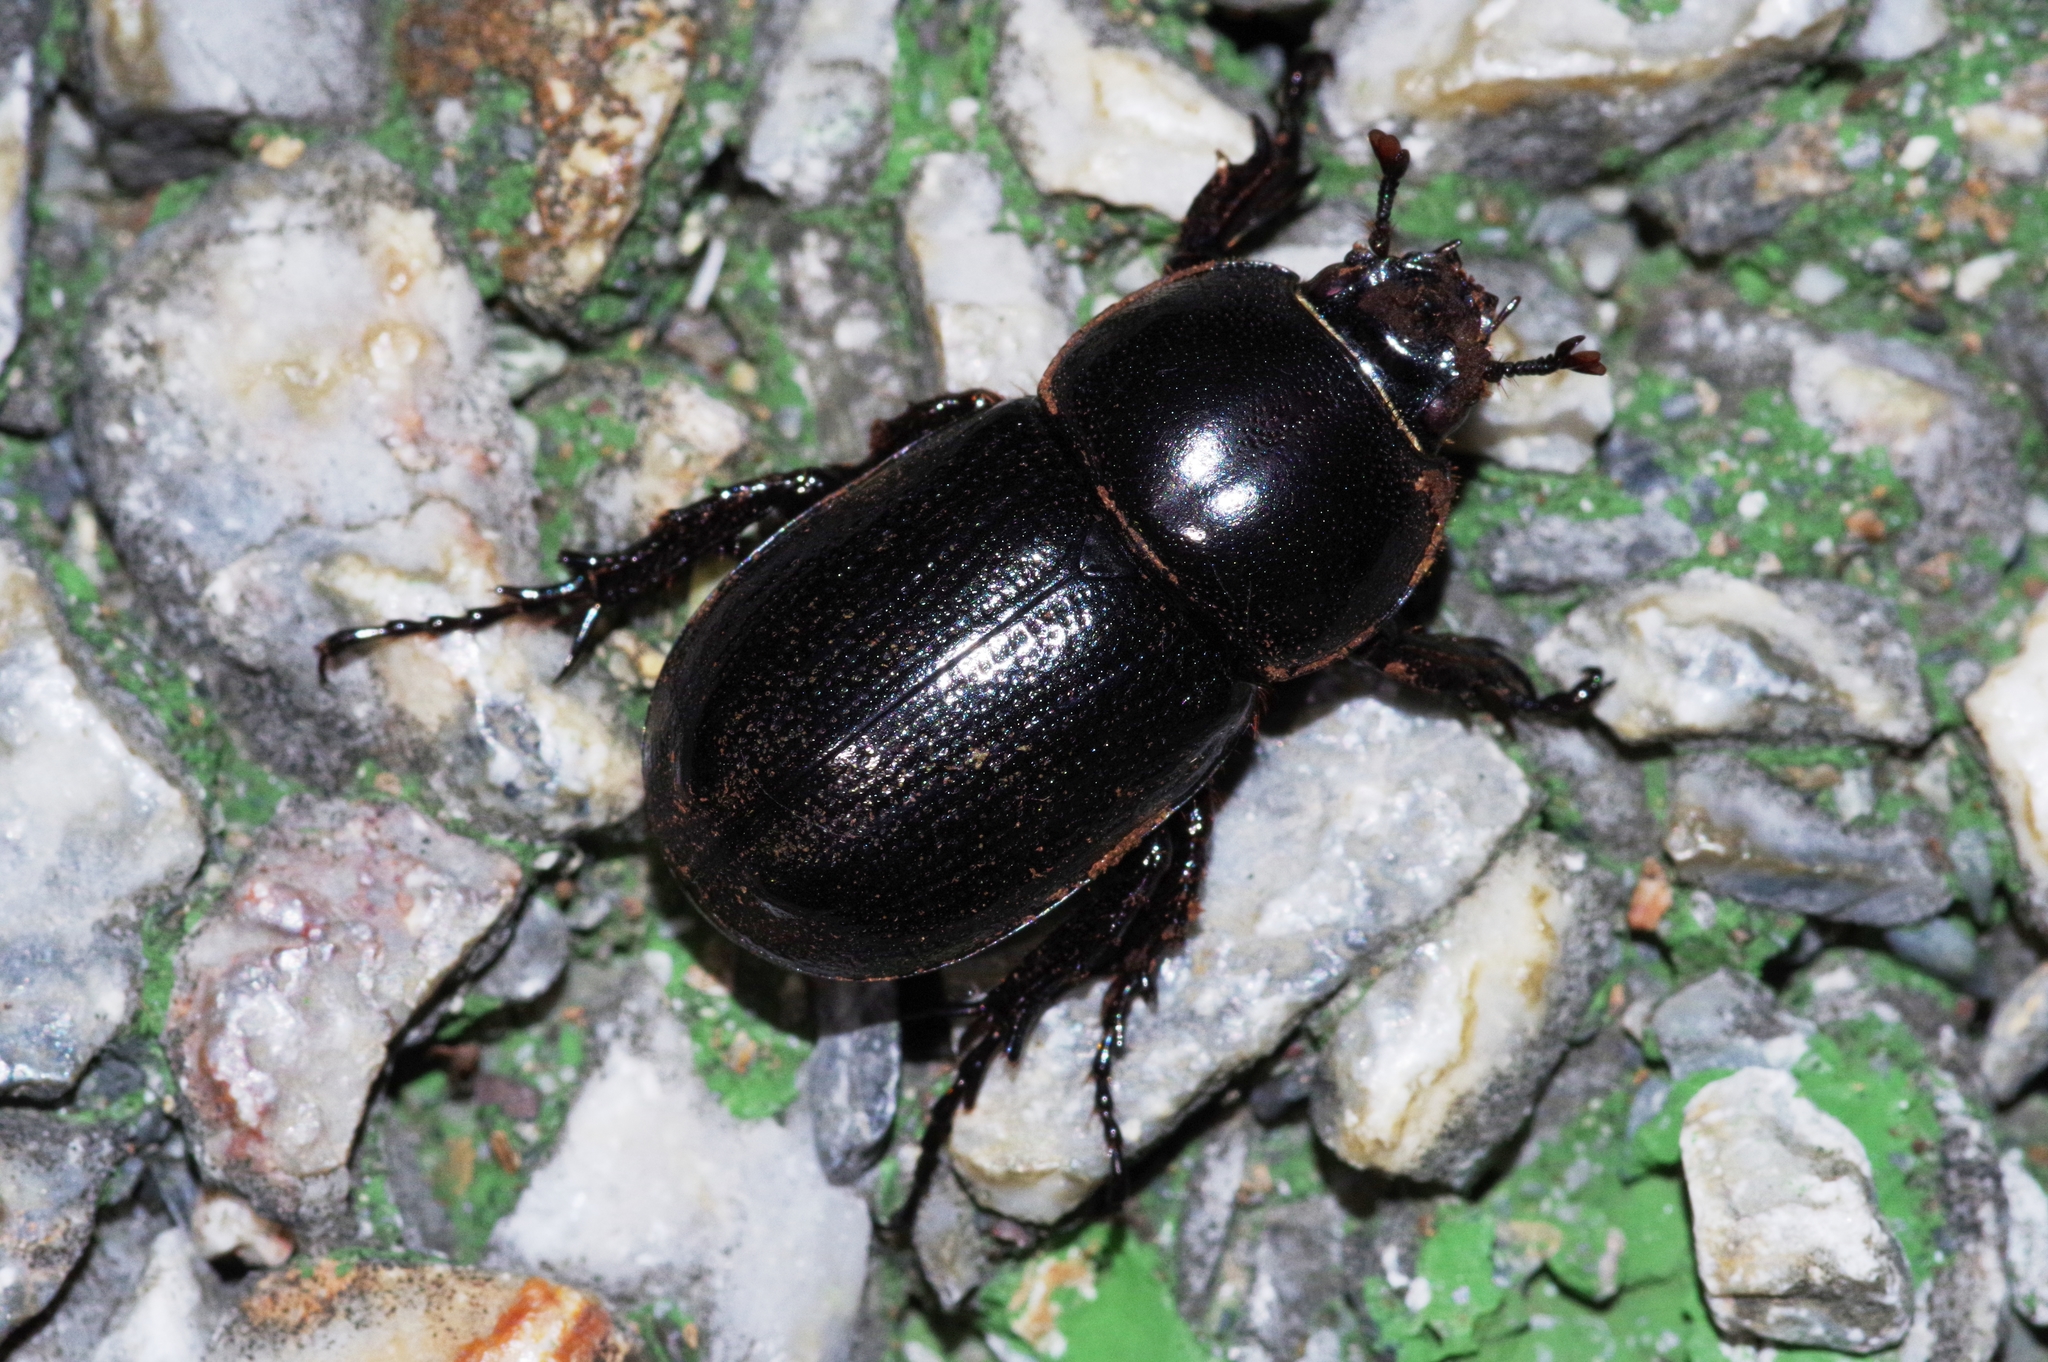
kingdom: Animalia
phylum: Arthropoda
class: Insecta
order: Coleoptera
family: Scarabaeidae
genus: Eophileurus
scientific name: Eophileurus chinensis
